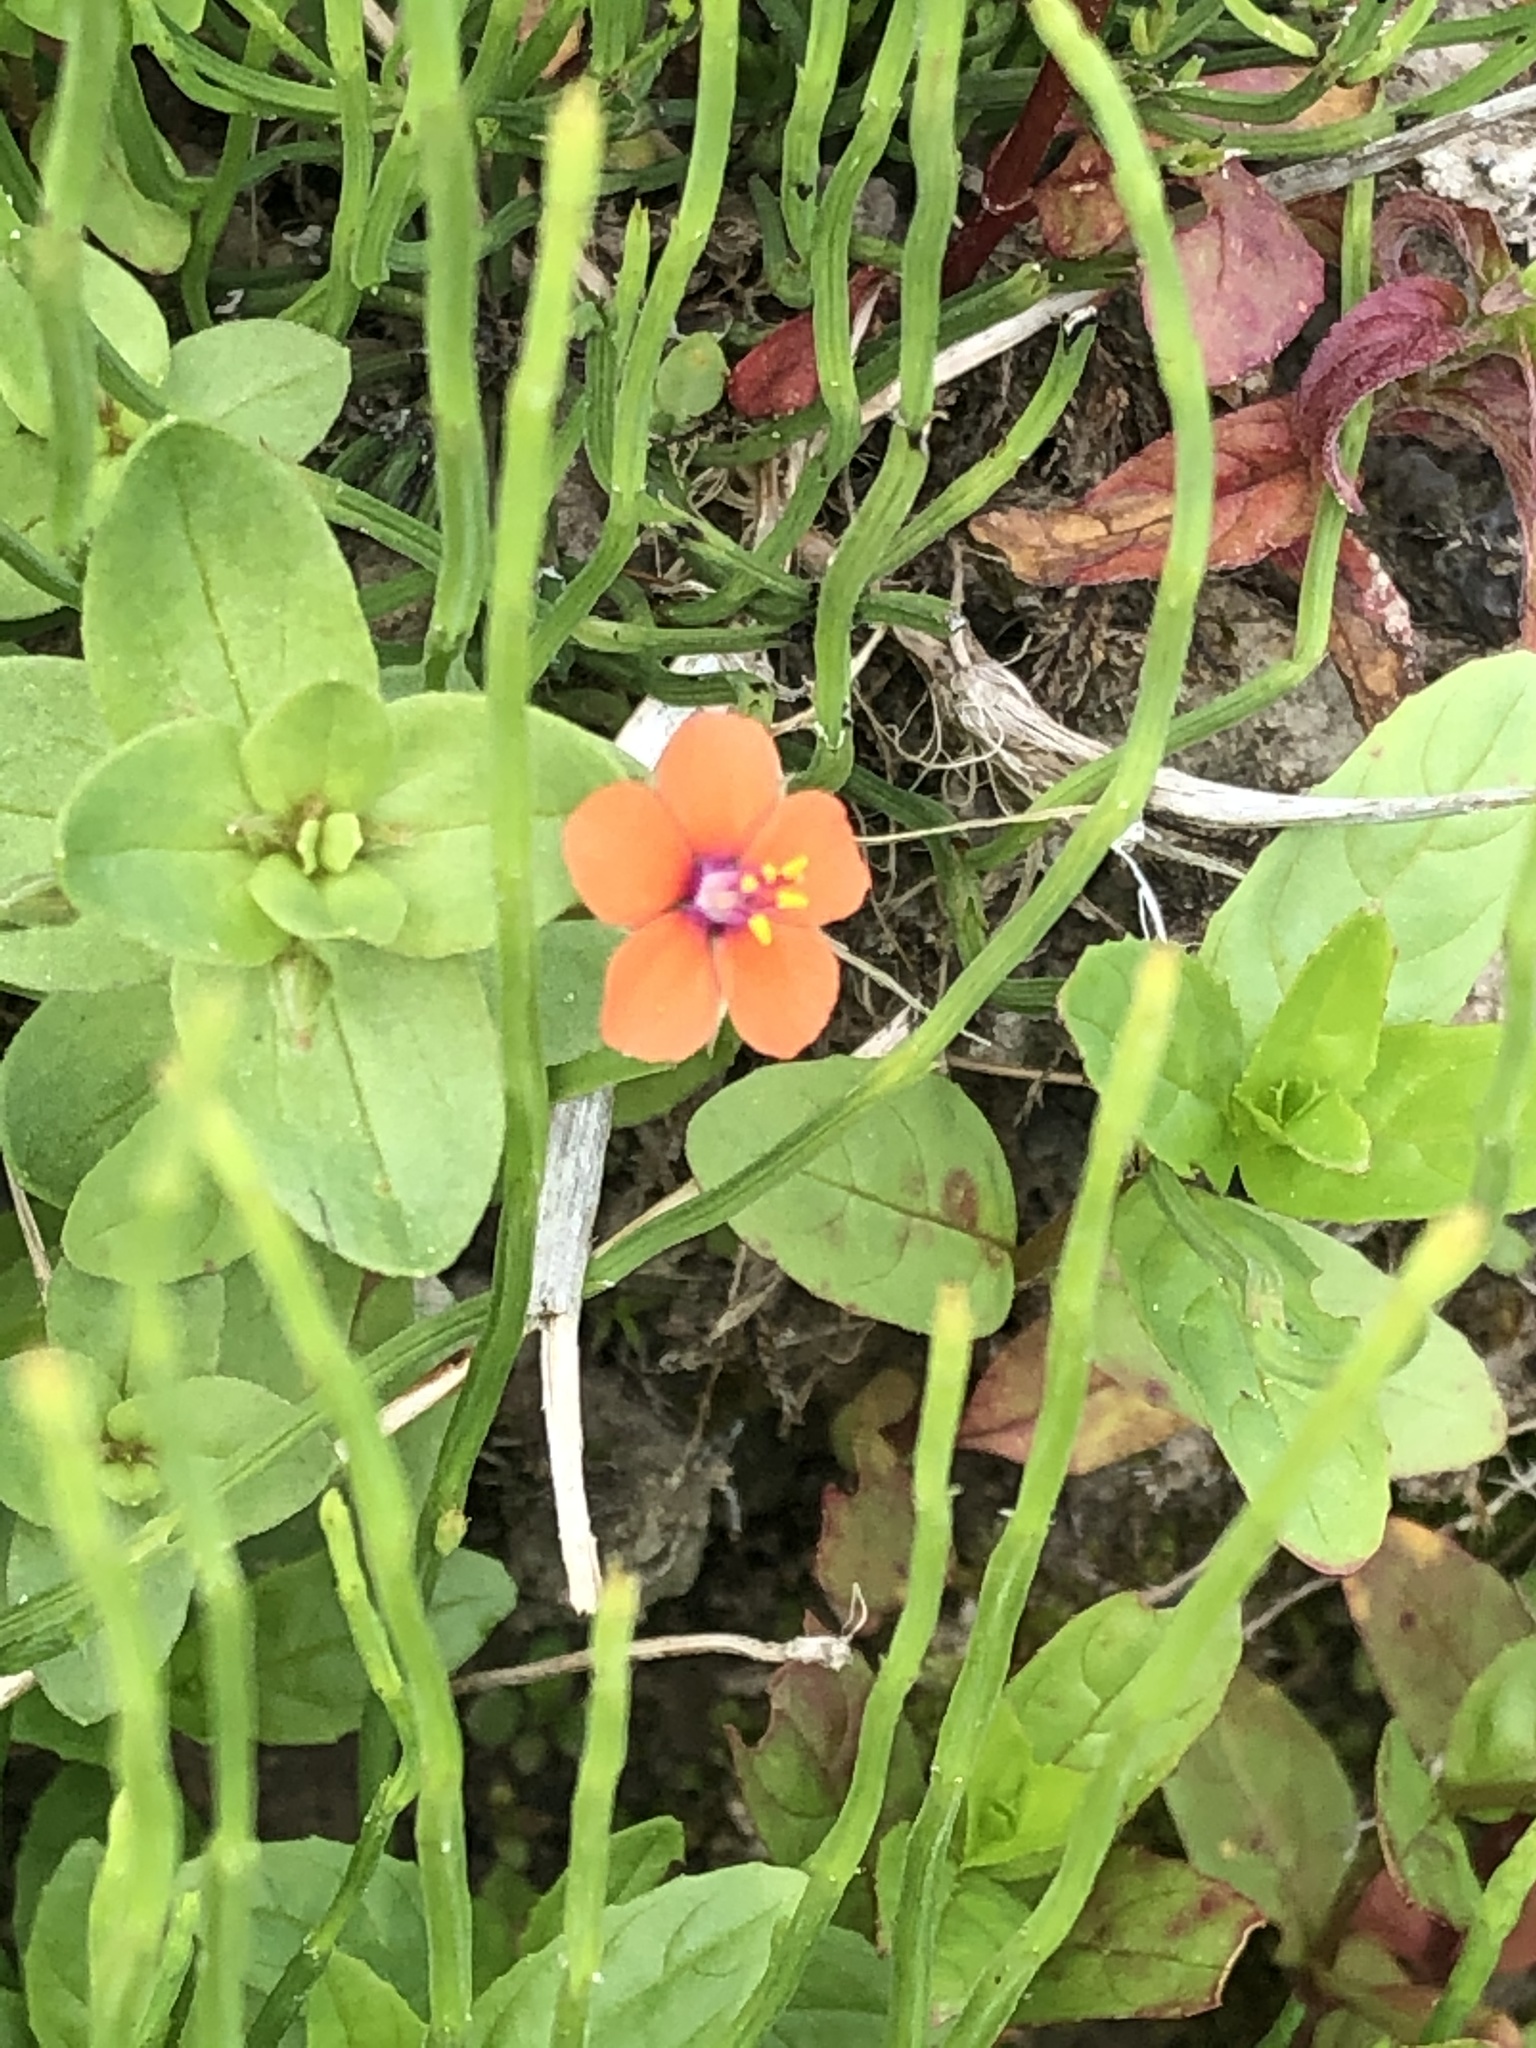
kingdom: Plantae
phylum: Tracheophyta
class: Magnoliopsida
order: Ericales
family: Primulaceae
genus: Lysimachia
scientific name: Lysimachia arvensis
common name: Scarlet pimpernel
